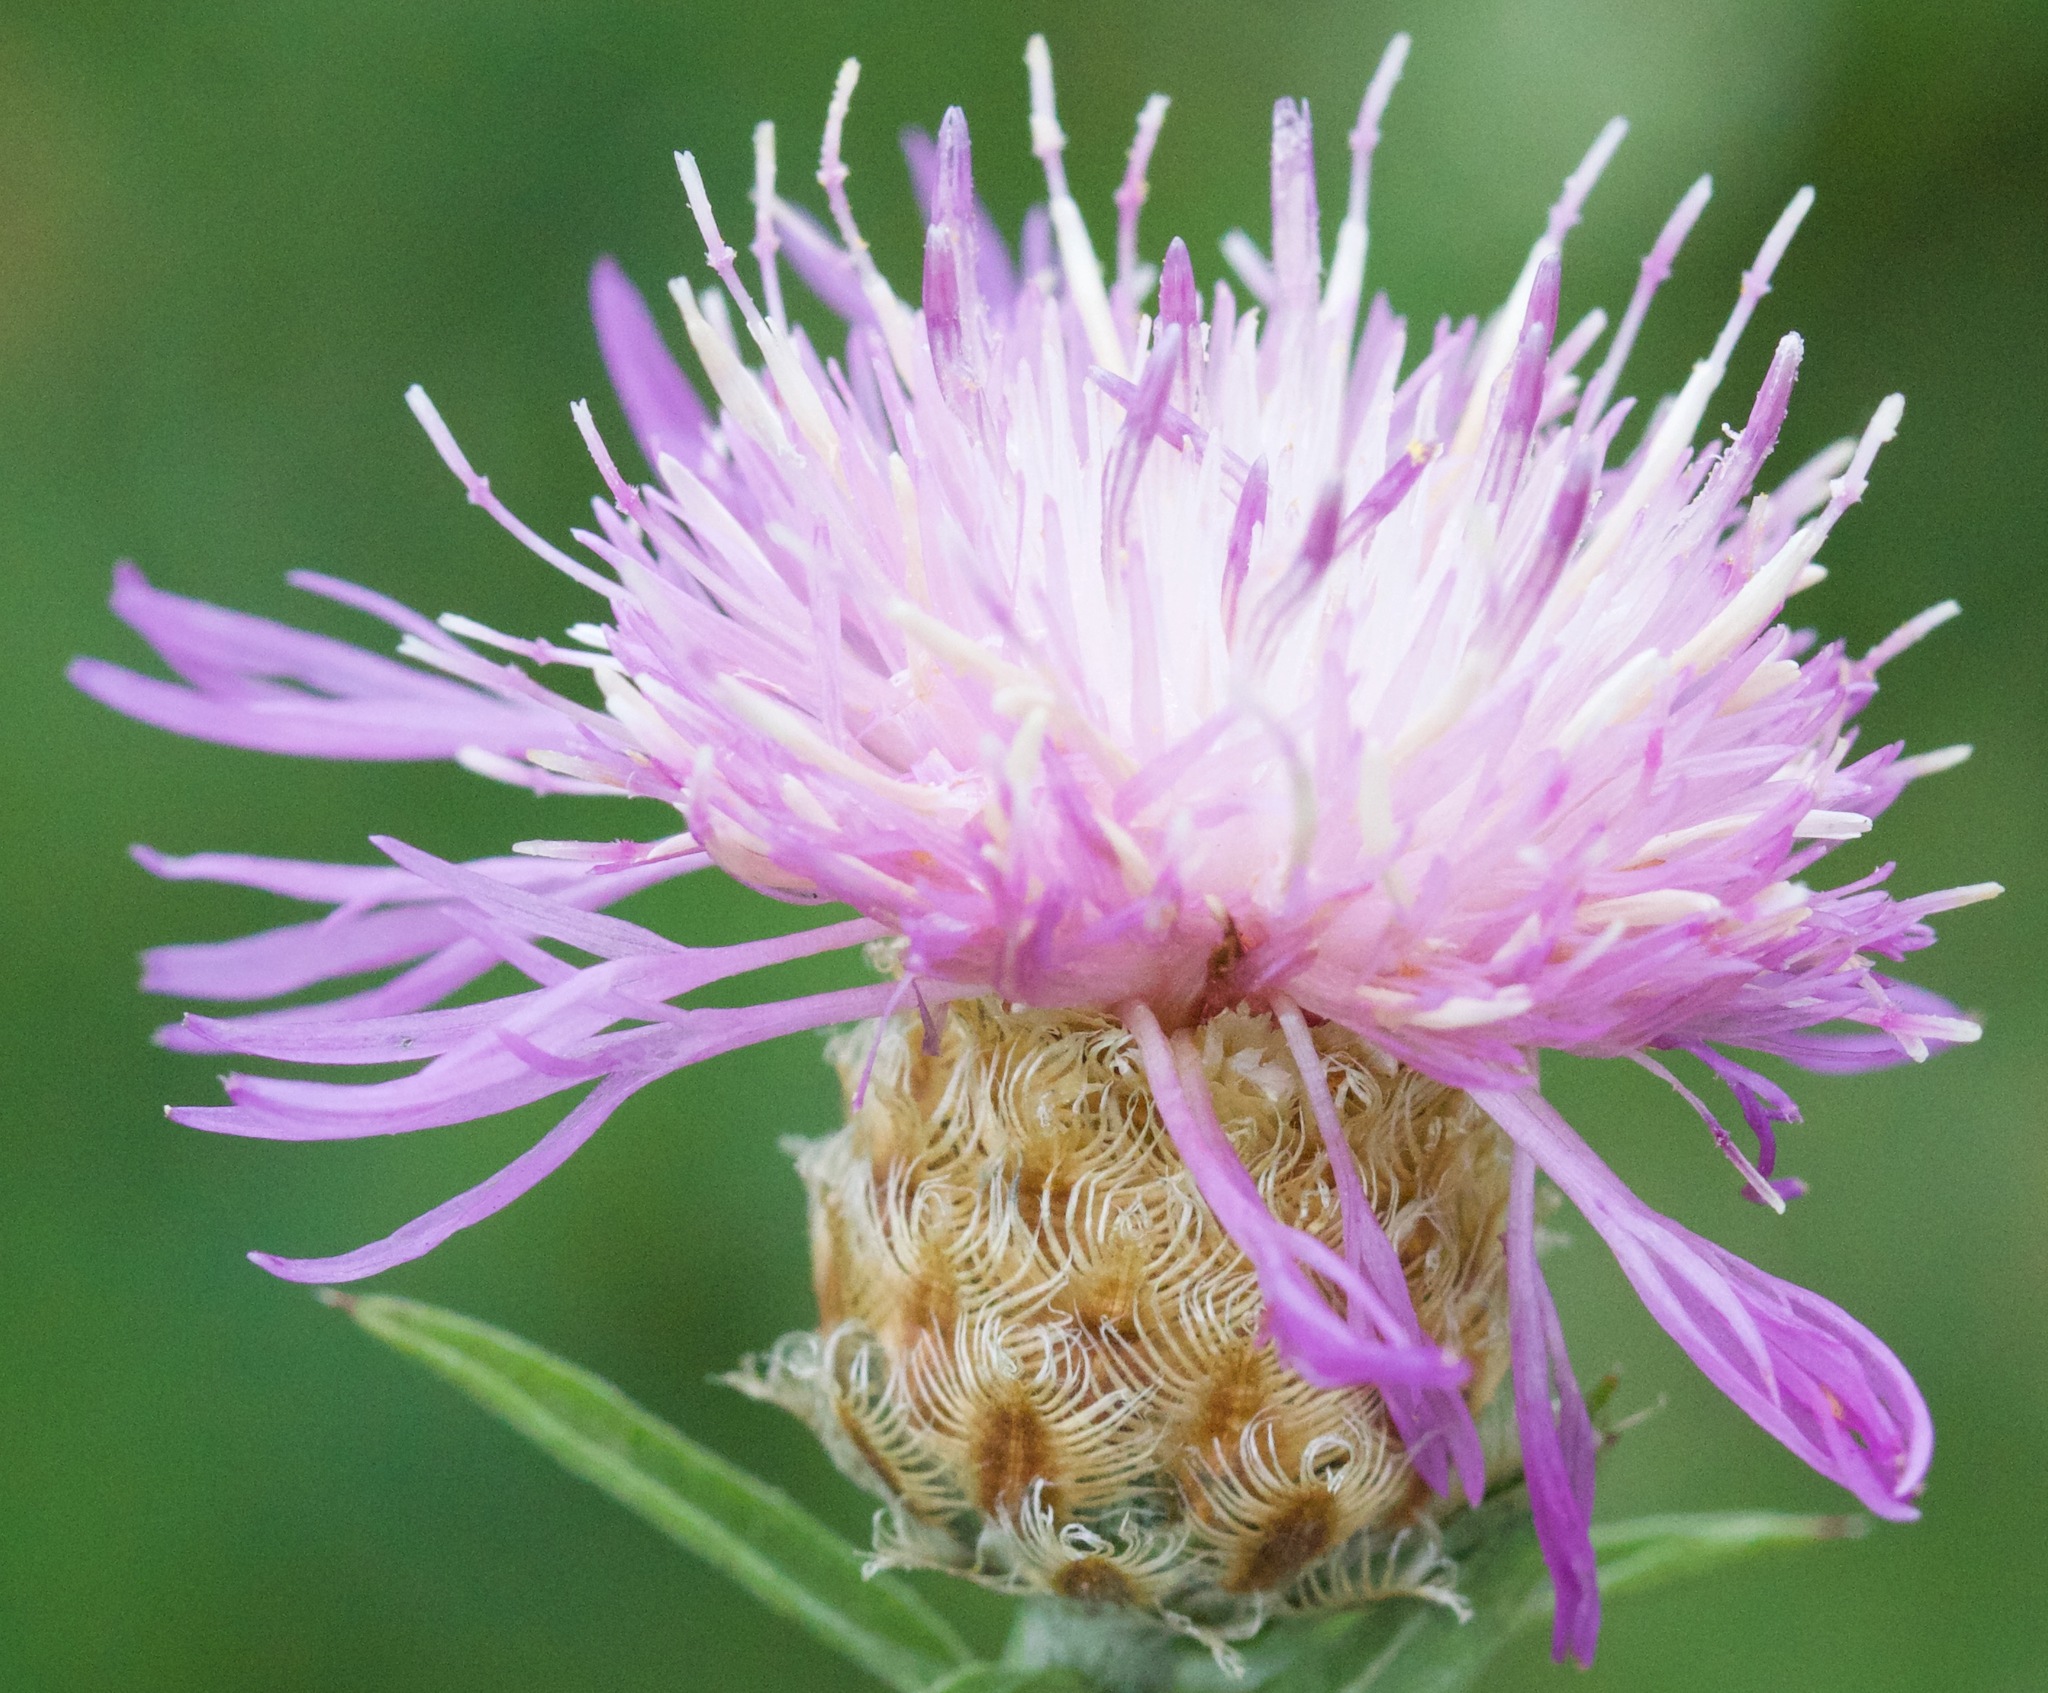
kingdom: Plantae
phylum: Tracheophyta
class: Magnoliopsida
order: Asterales
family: Asteraceae
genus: Centaurea
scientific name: Centaurea moncktonii
